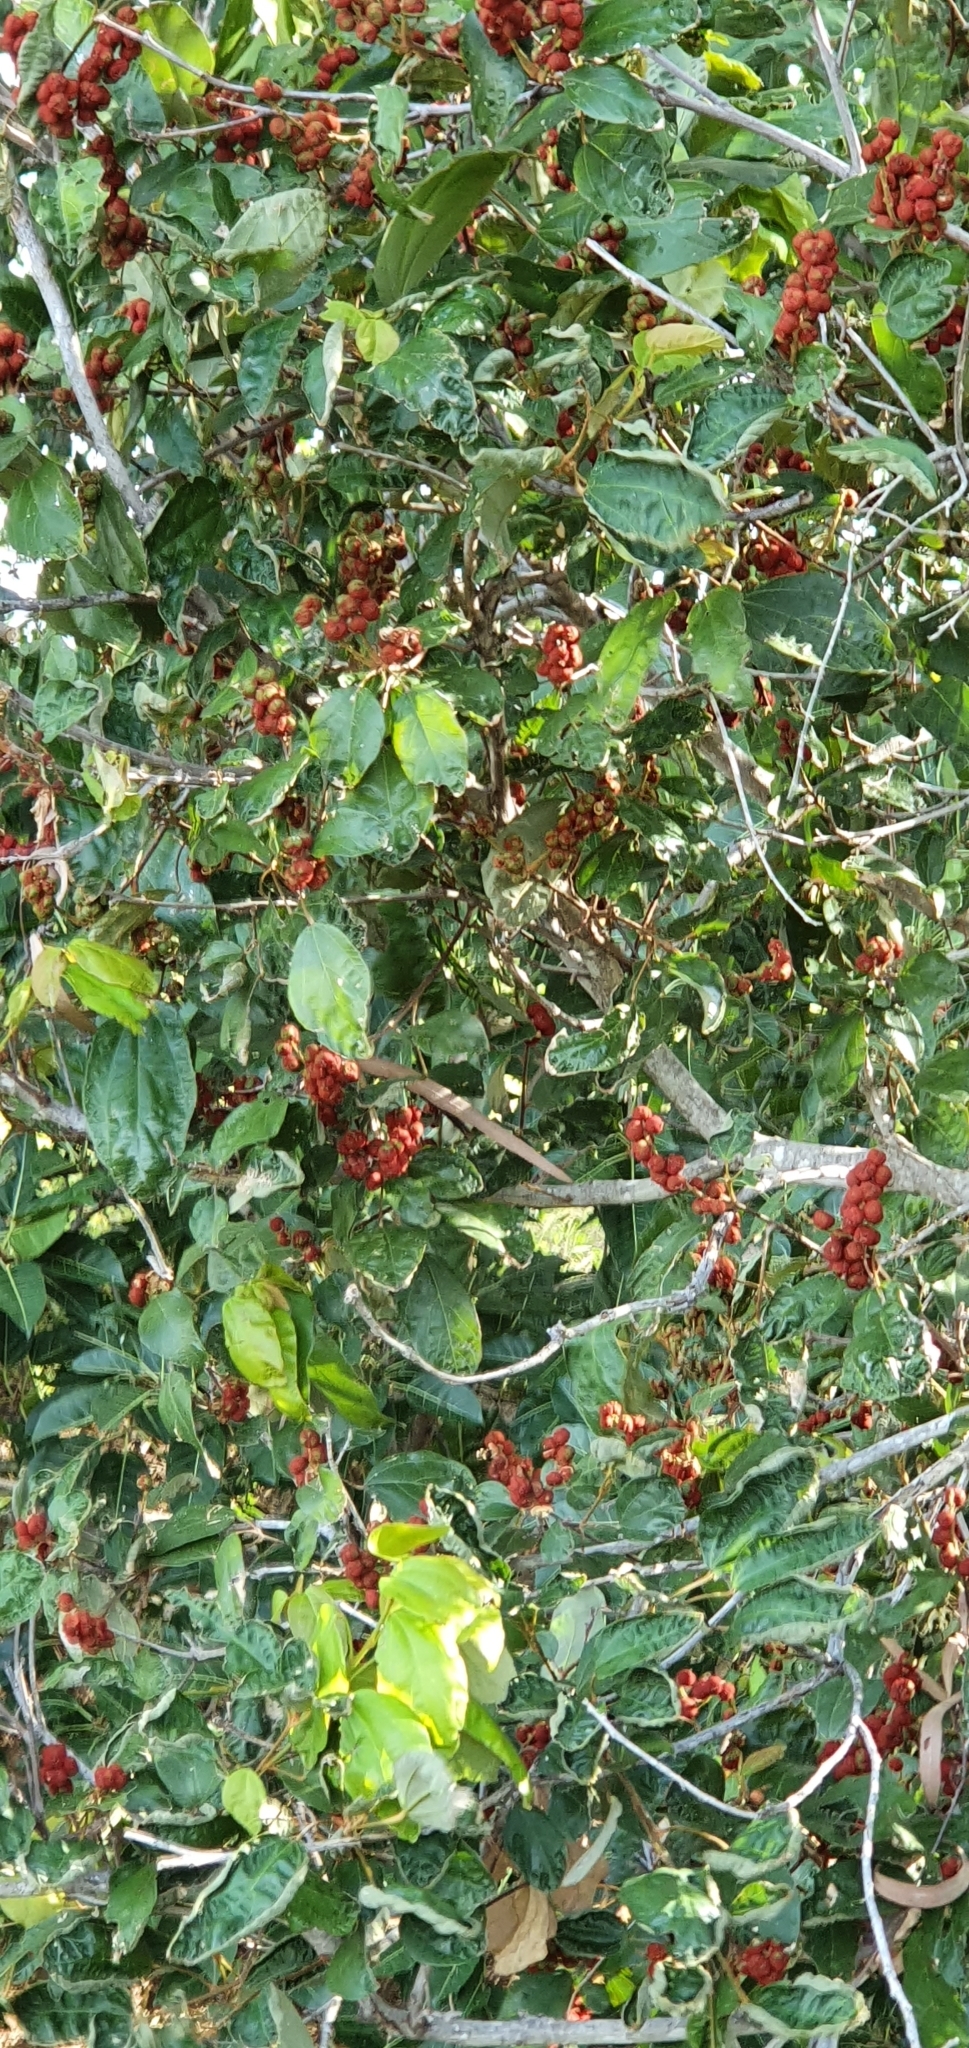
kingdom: Plantae
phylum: Tracheophyta
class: Magnoliopsida
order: Malpighiales
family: Euphorbiaceae
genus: Mallotus
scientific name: Mallotus philippensis
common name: Kamala tree
